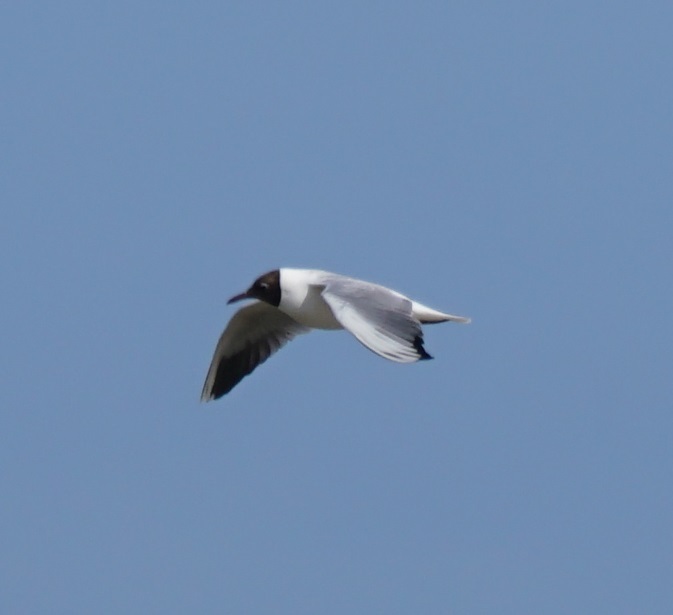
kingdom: Animalia
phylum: Chordata
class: Aves
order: Charadriiformes
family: Laridae
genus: Chroicocephalus
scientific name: Chroicocephalus ridibundus
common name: Black-headed gull
